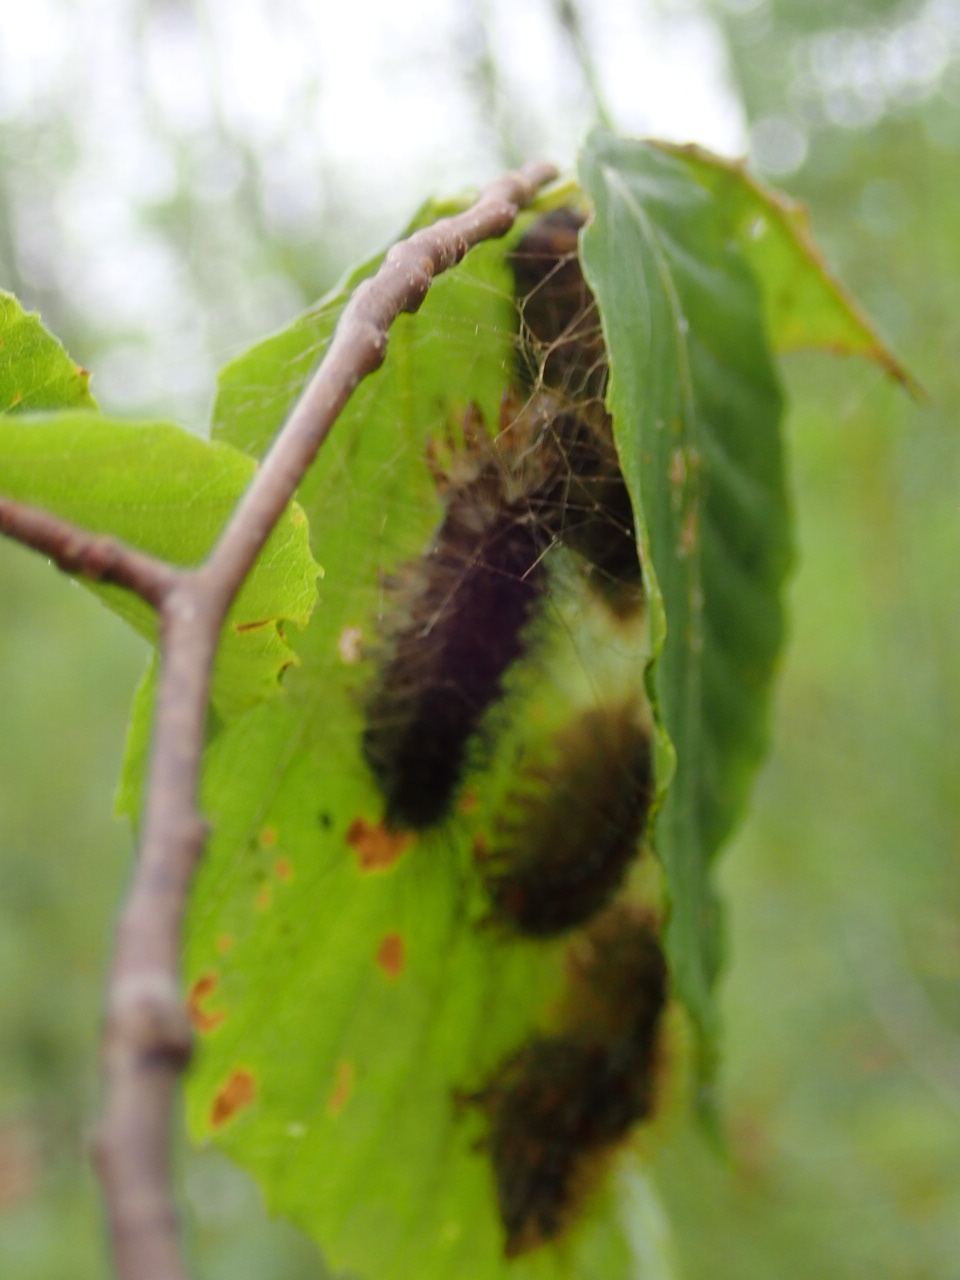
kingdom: Animalia
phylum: Arthropoda
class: Insecta
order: Lepidoptera
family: Erebidae
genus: Lymantria
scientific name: Lymantria dispar
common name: Gypsy moth
